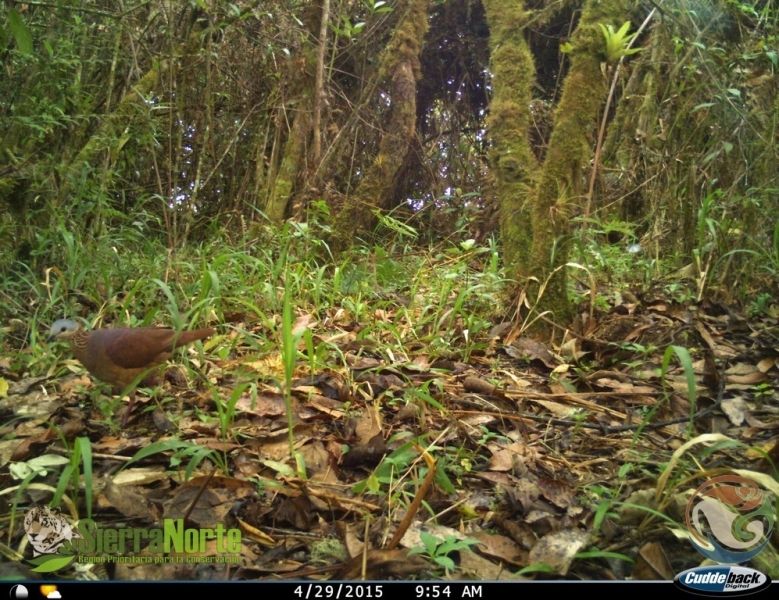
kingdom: Animalia
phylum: Chordata
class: Aves
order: Columbiformes
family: Columbidae
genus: Zentrygon
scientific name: Zentrygon albifacies
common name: White-faced quail-dove
